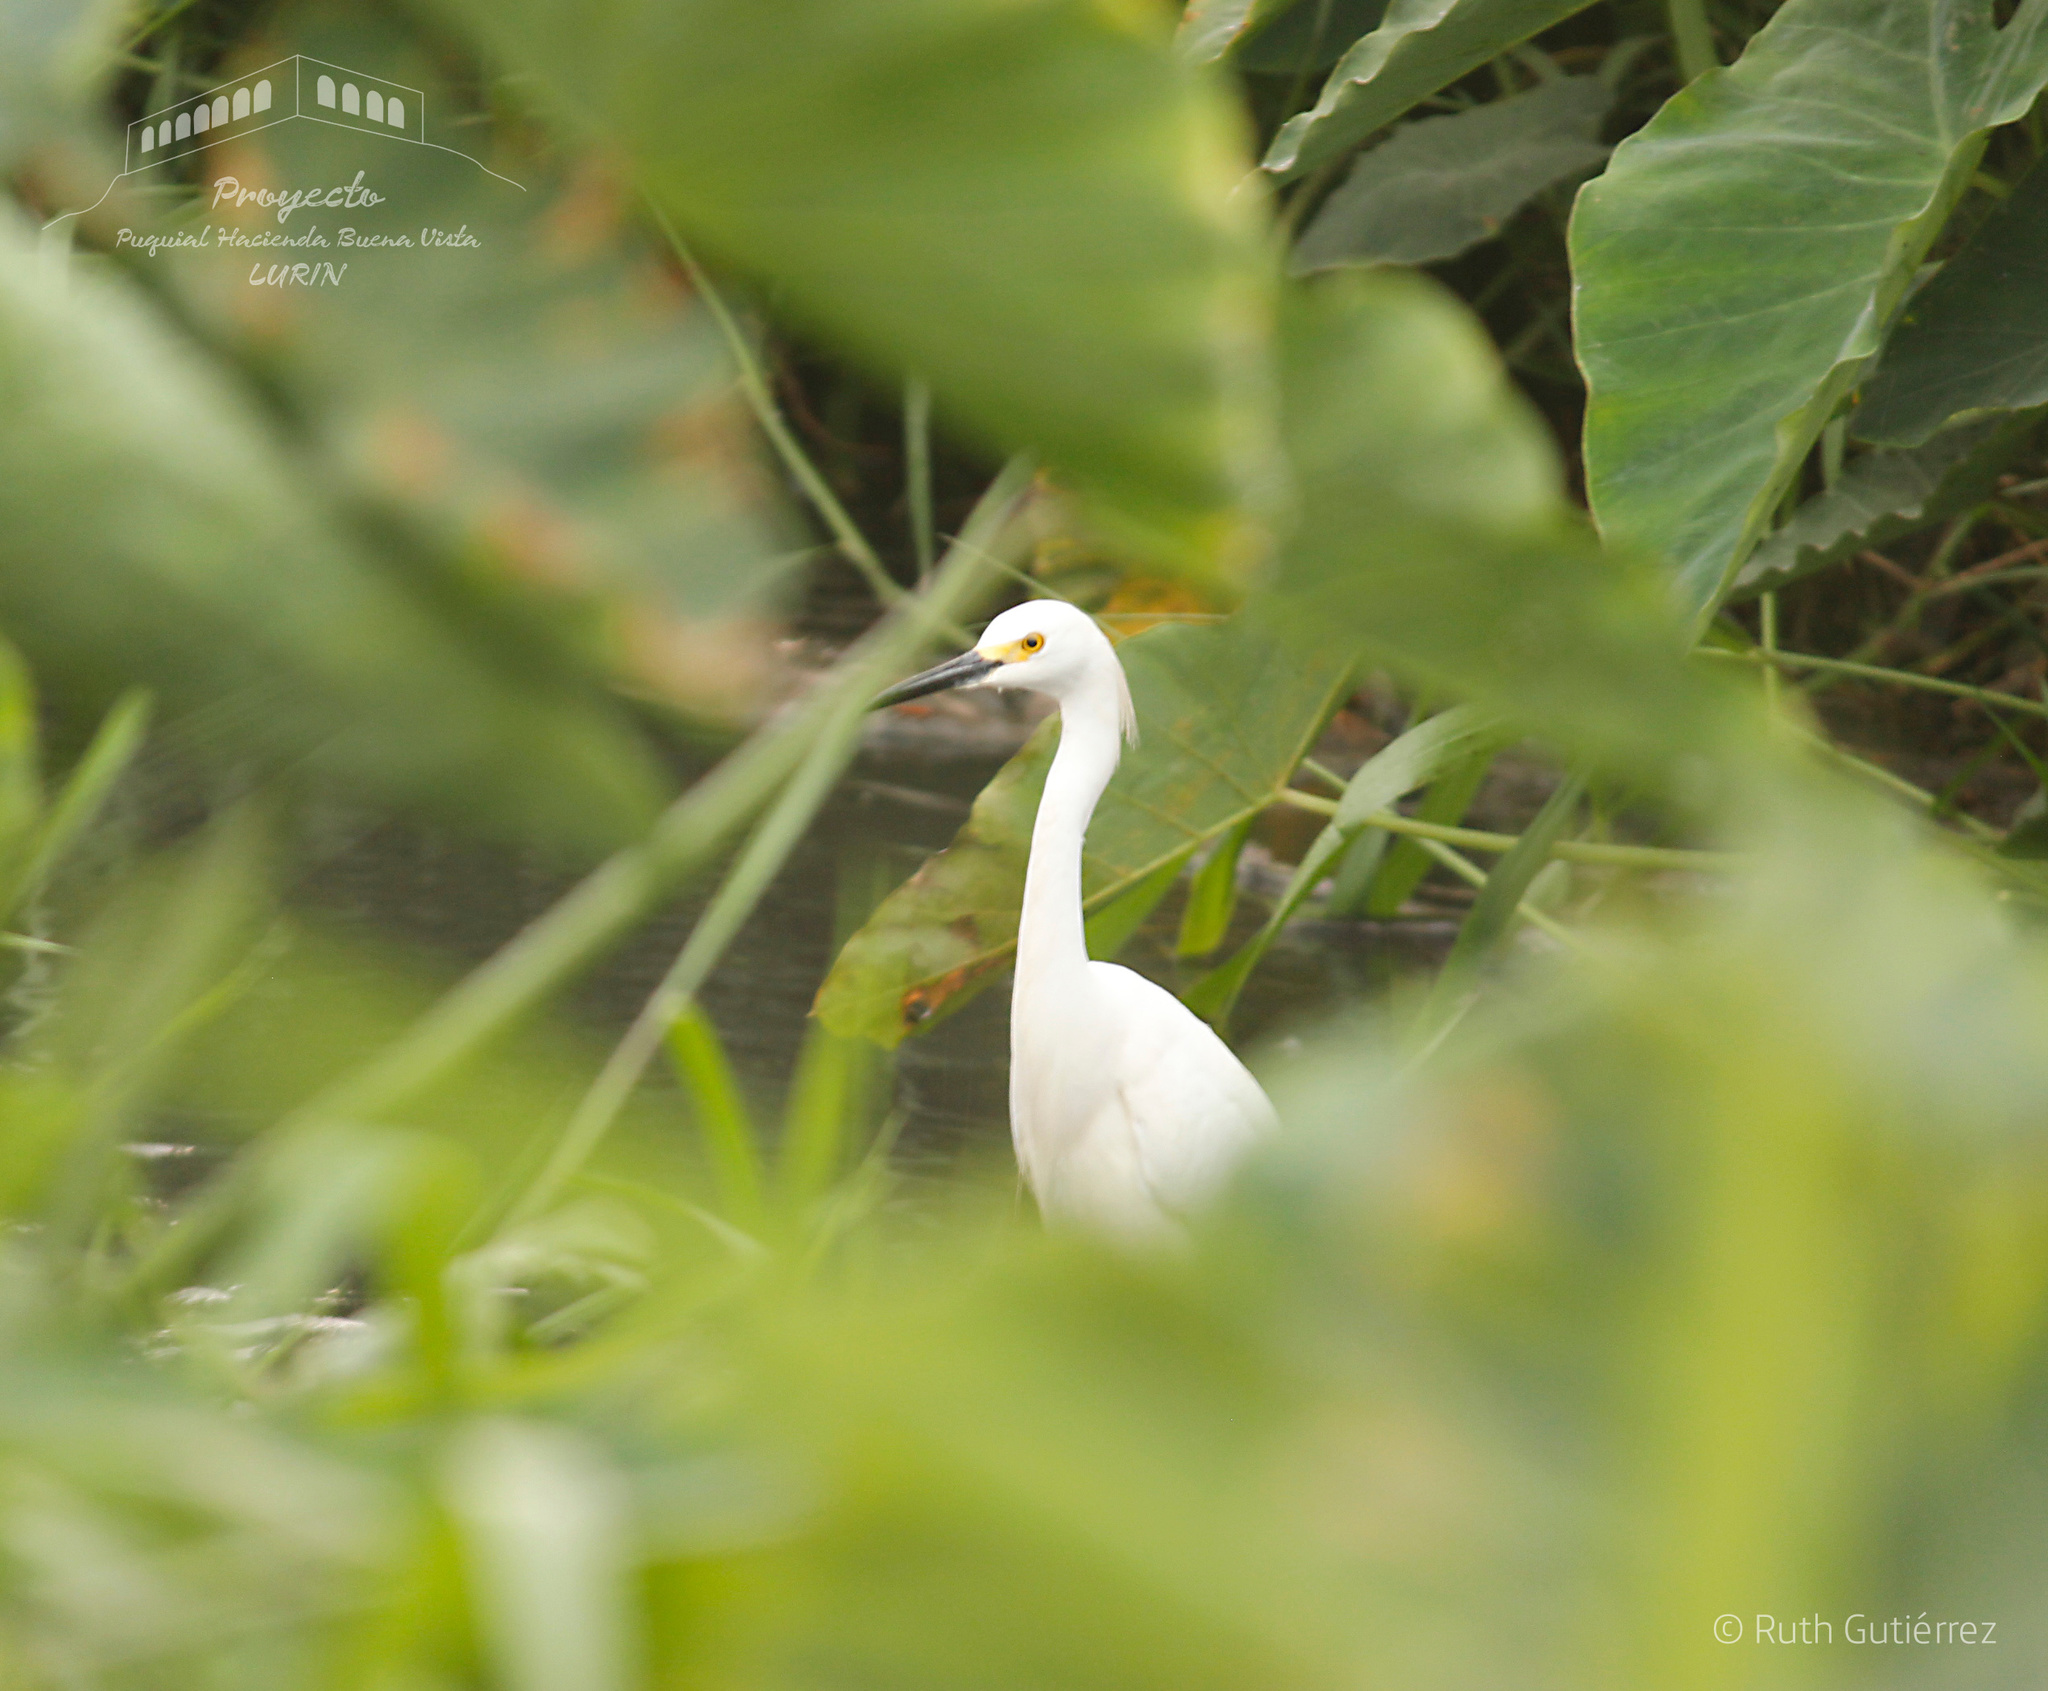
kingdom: Animalia
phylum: Chordata
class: Aves
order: Pelecaniformes
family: Ardeidae
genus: Egretta
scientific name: Egretta thula
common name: Snowy egret
